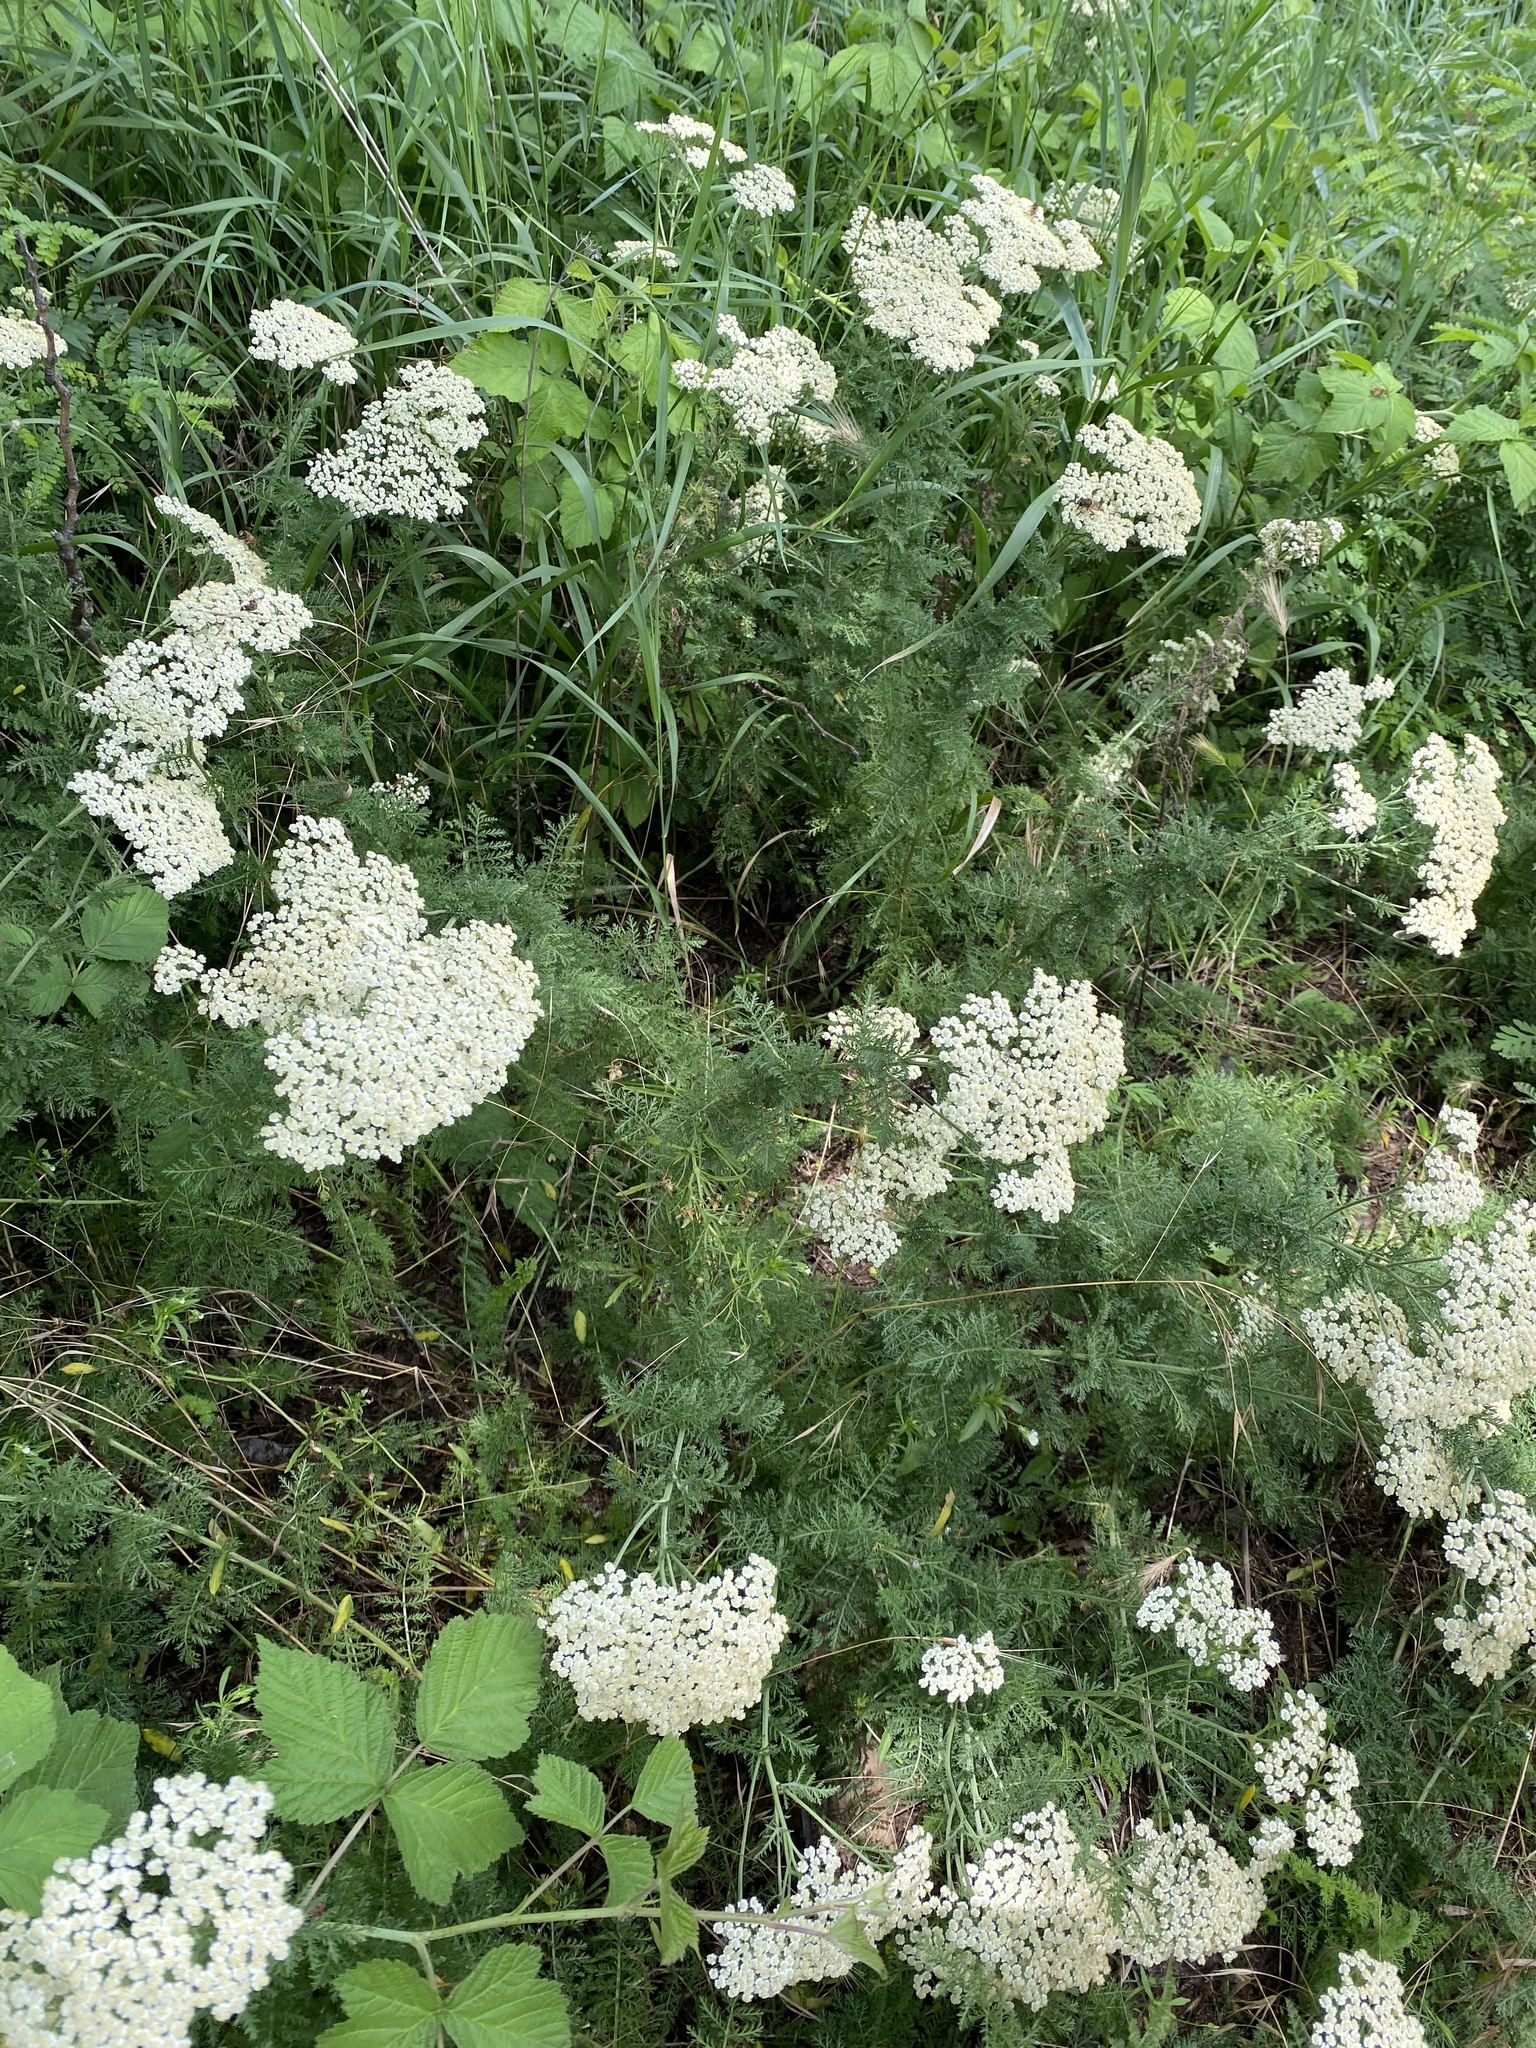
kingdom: Plantae
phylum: Tracheophyta
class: Magnoliopsida
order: Asterales
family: Asteraceae
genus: Achillea
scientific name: Achillea nobilis
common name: Noble yarrow
